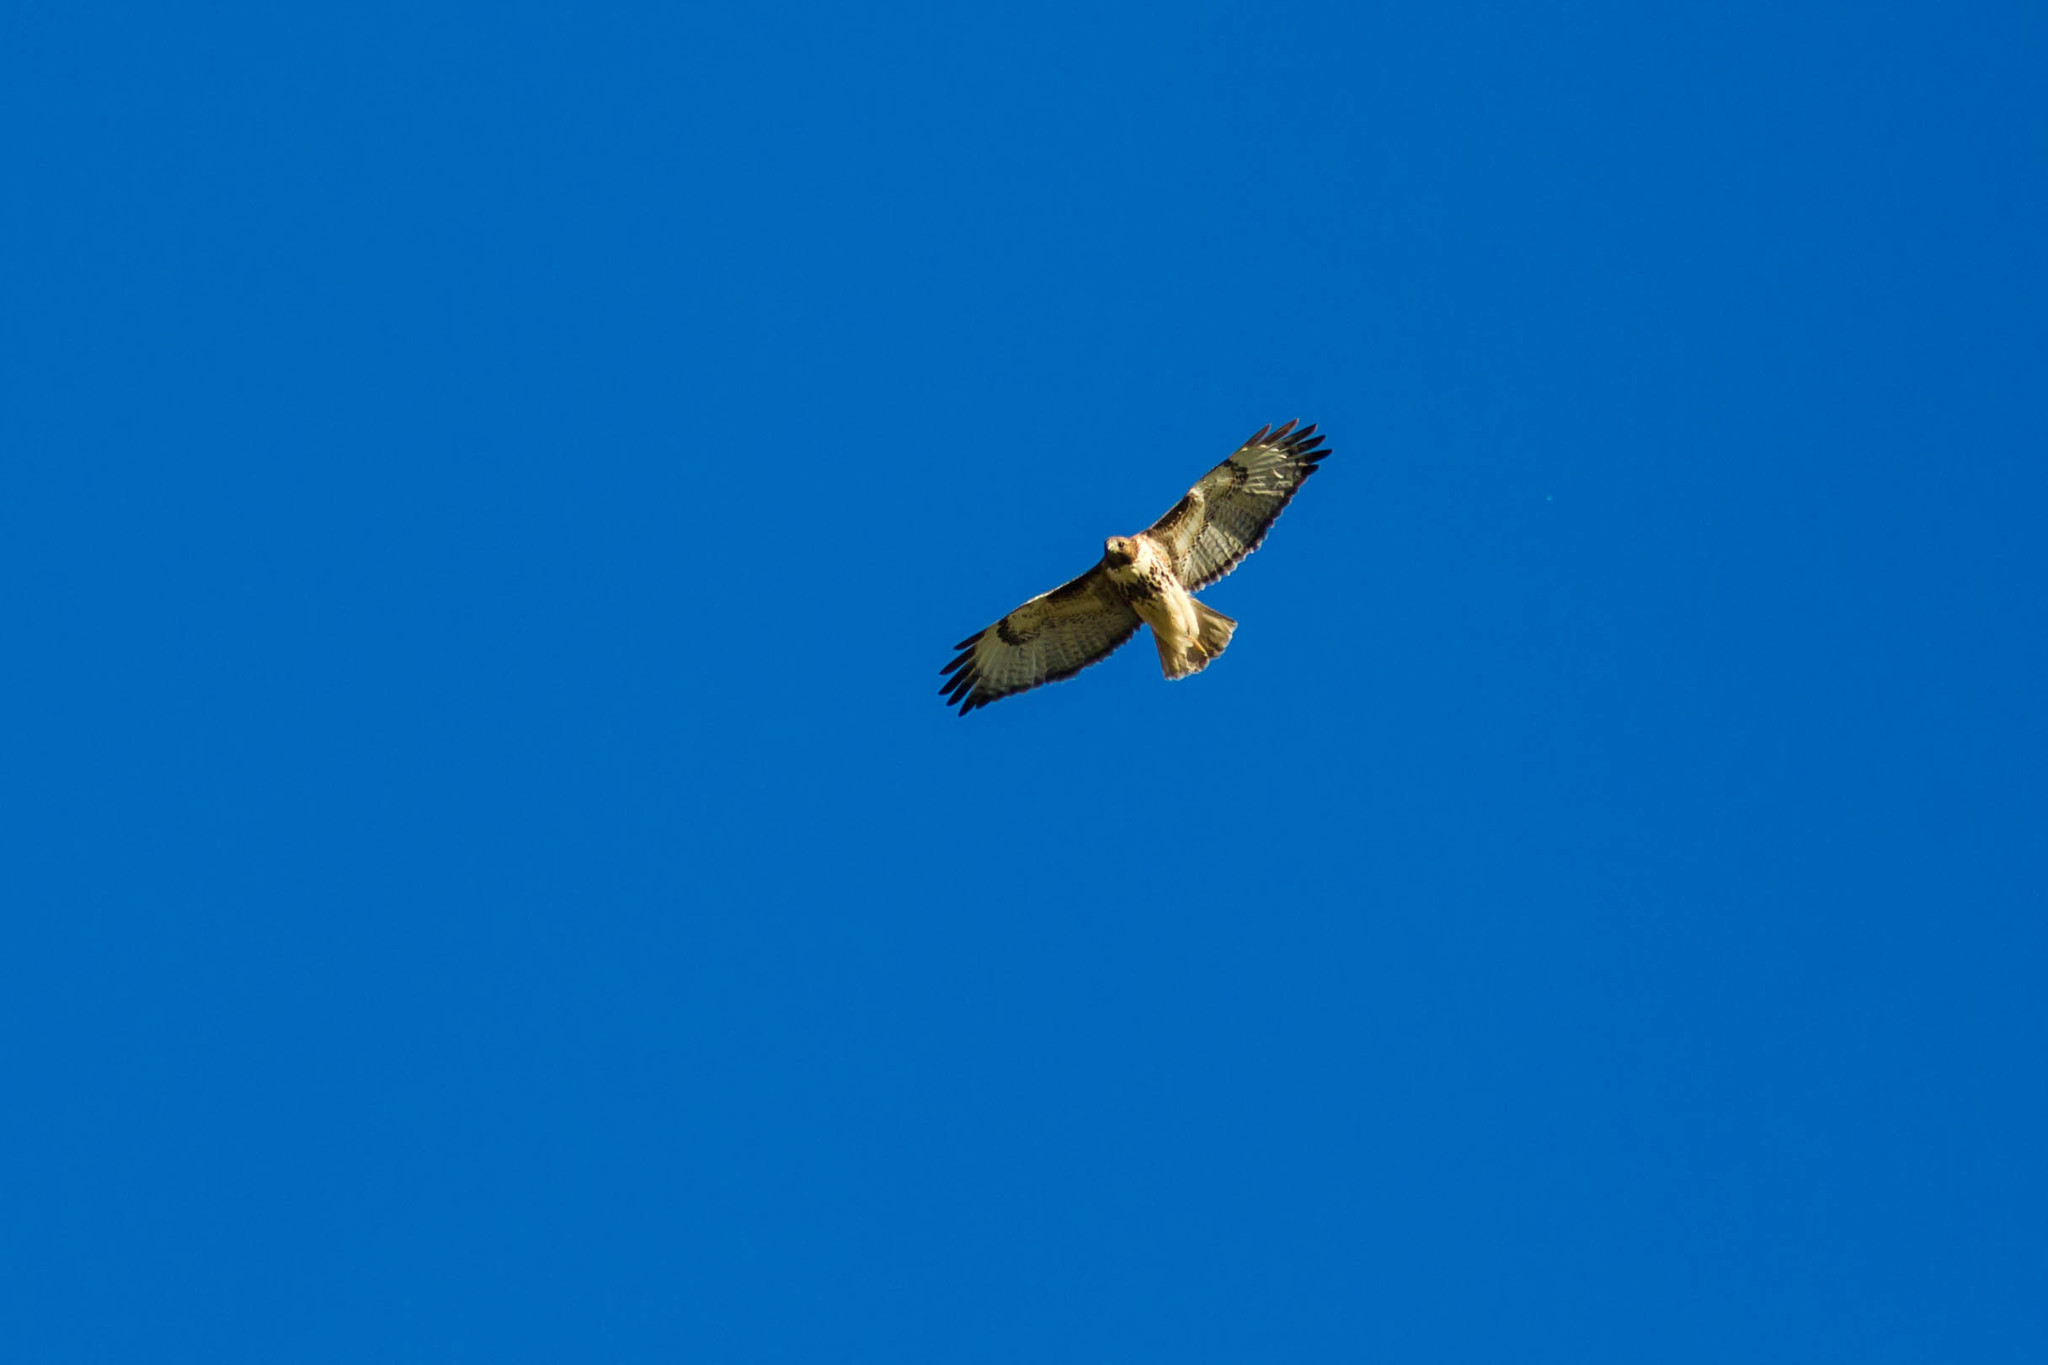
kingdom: Animalia
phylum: Chordata
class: Aves
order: Accipitriformes
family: Accipitridae
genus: Buteo
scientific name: Buteo jamaicensis
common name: Red-tailed hawk
